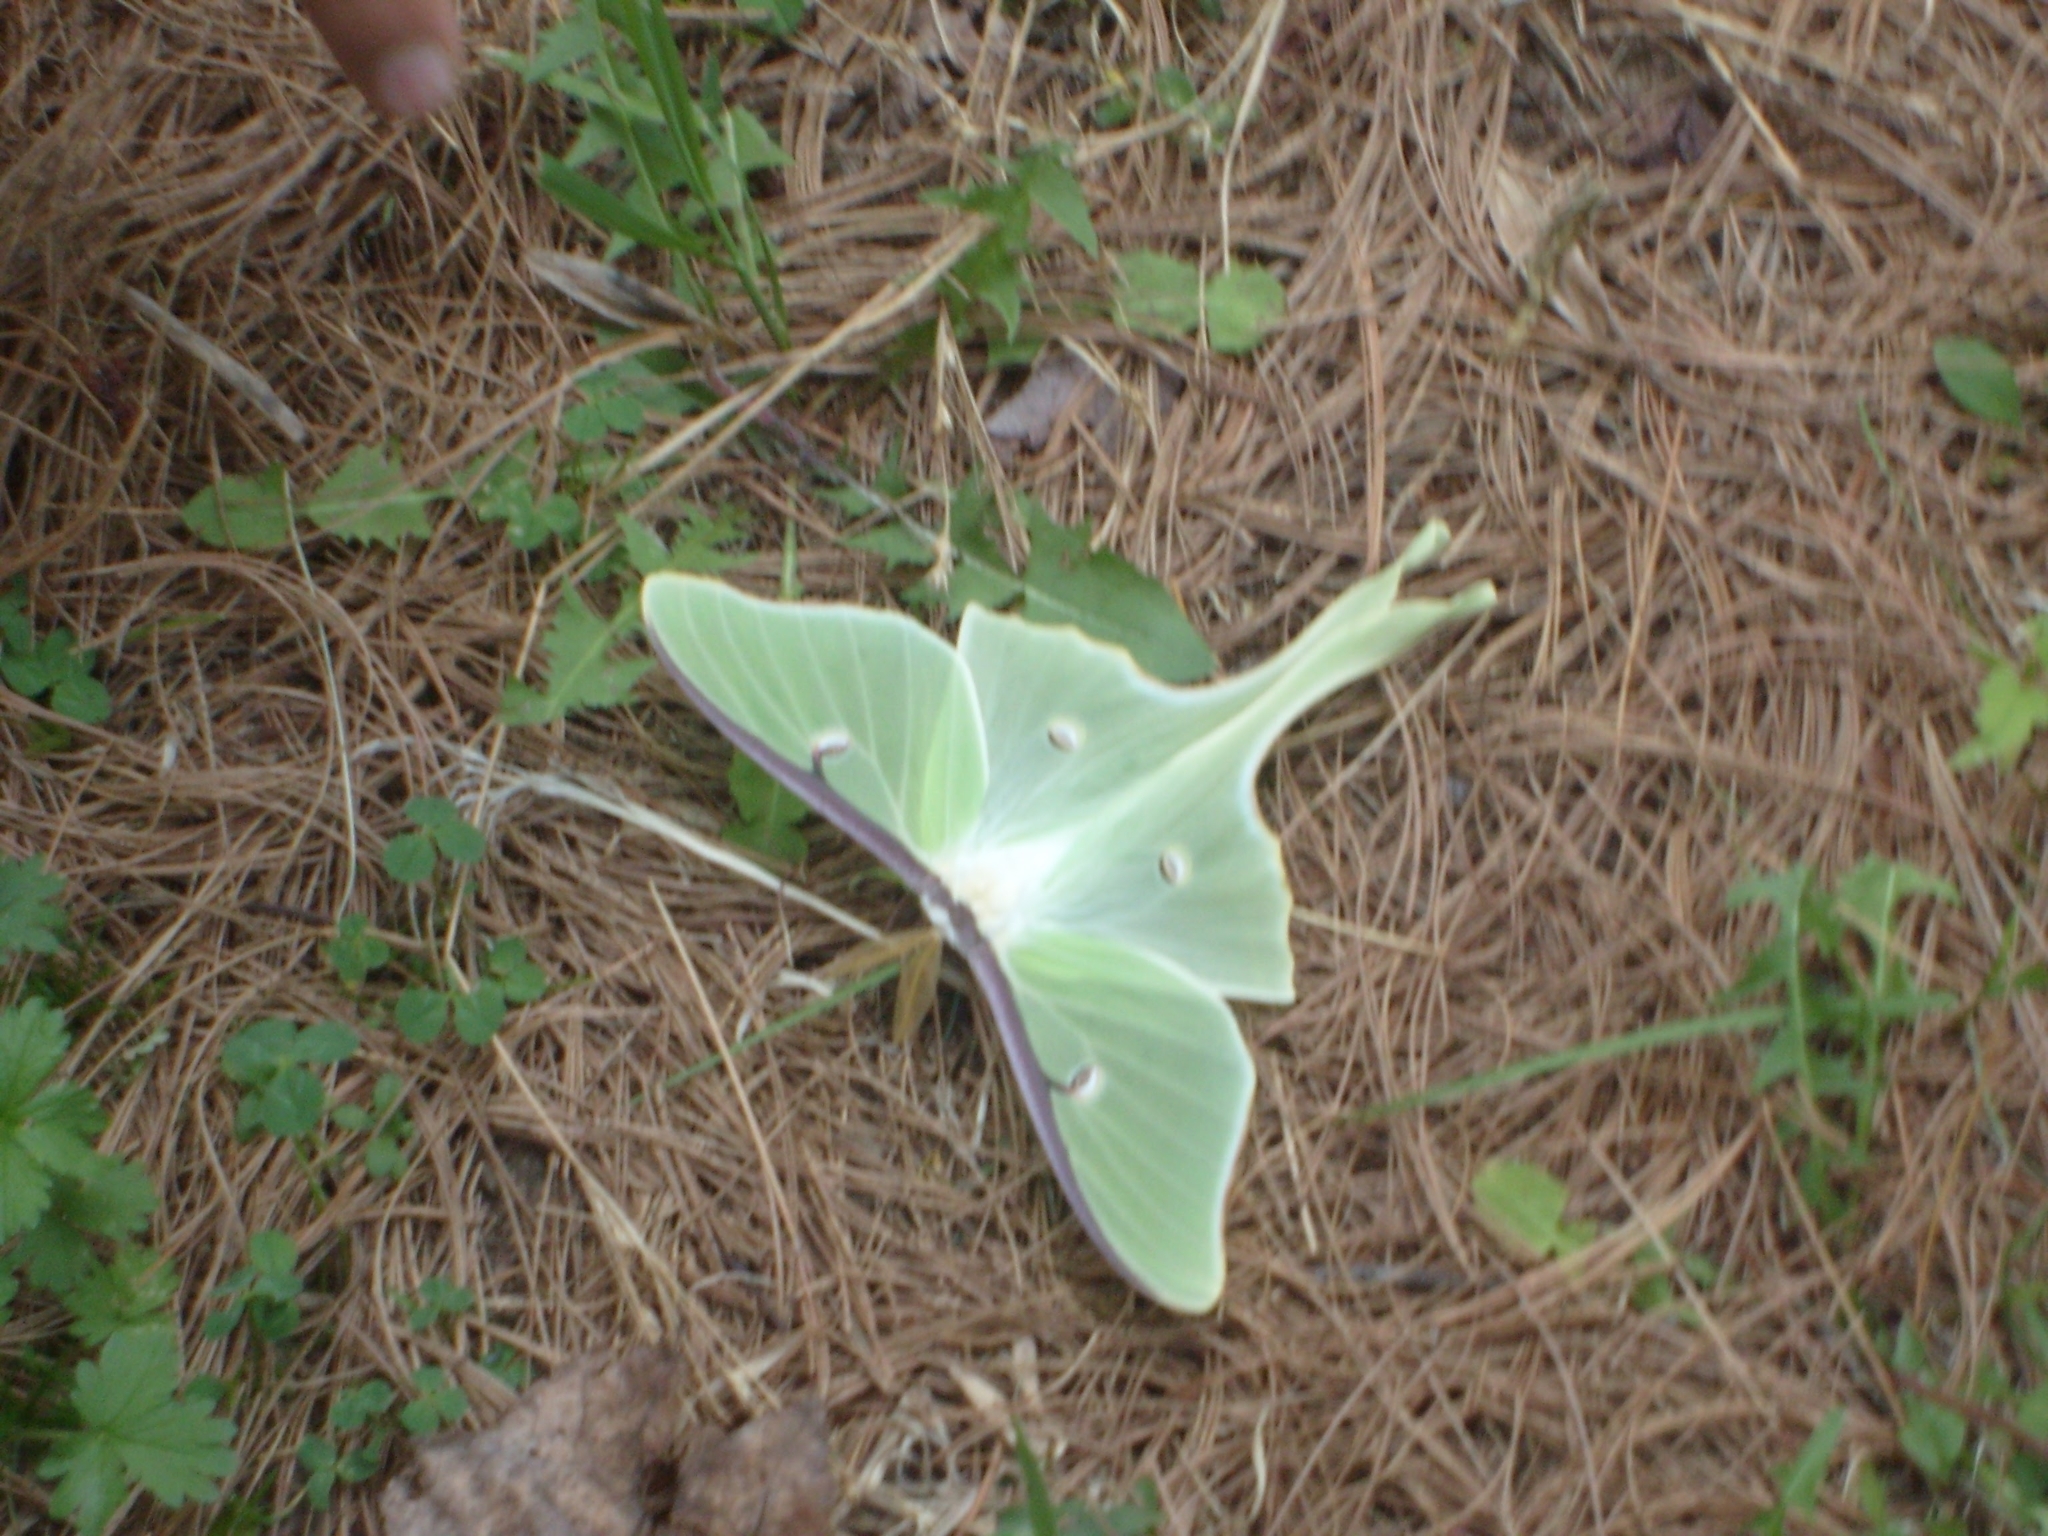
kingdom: Animalia
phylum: Arthropoda
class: Insecta
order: Lepidoptera
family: Saturniidae
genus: Actias
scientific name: Actias luna
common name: Luna moth
